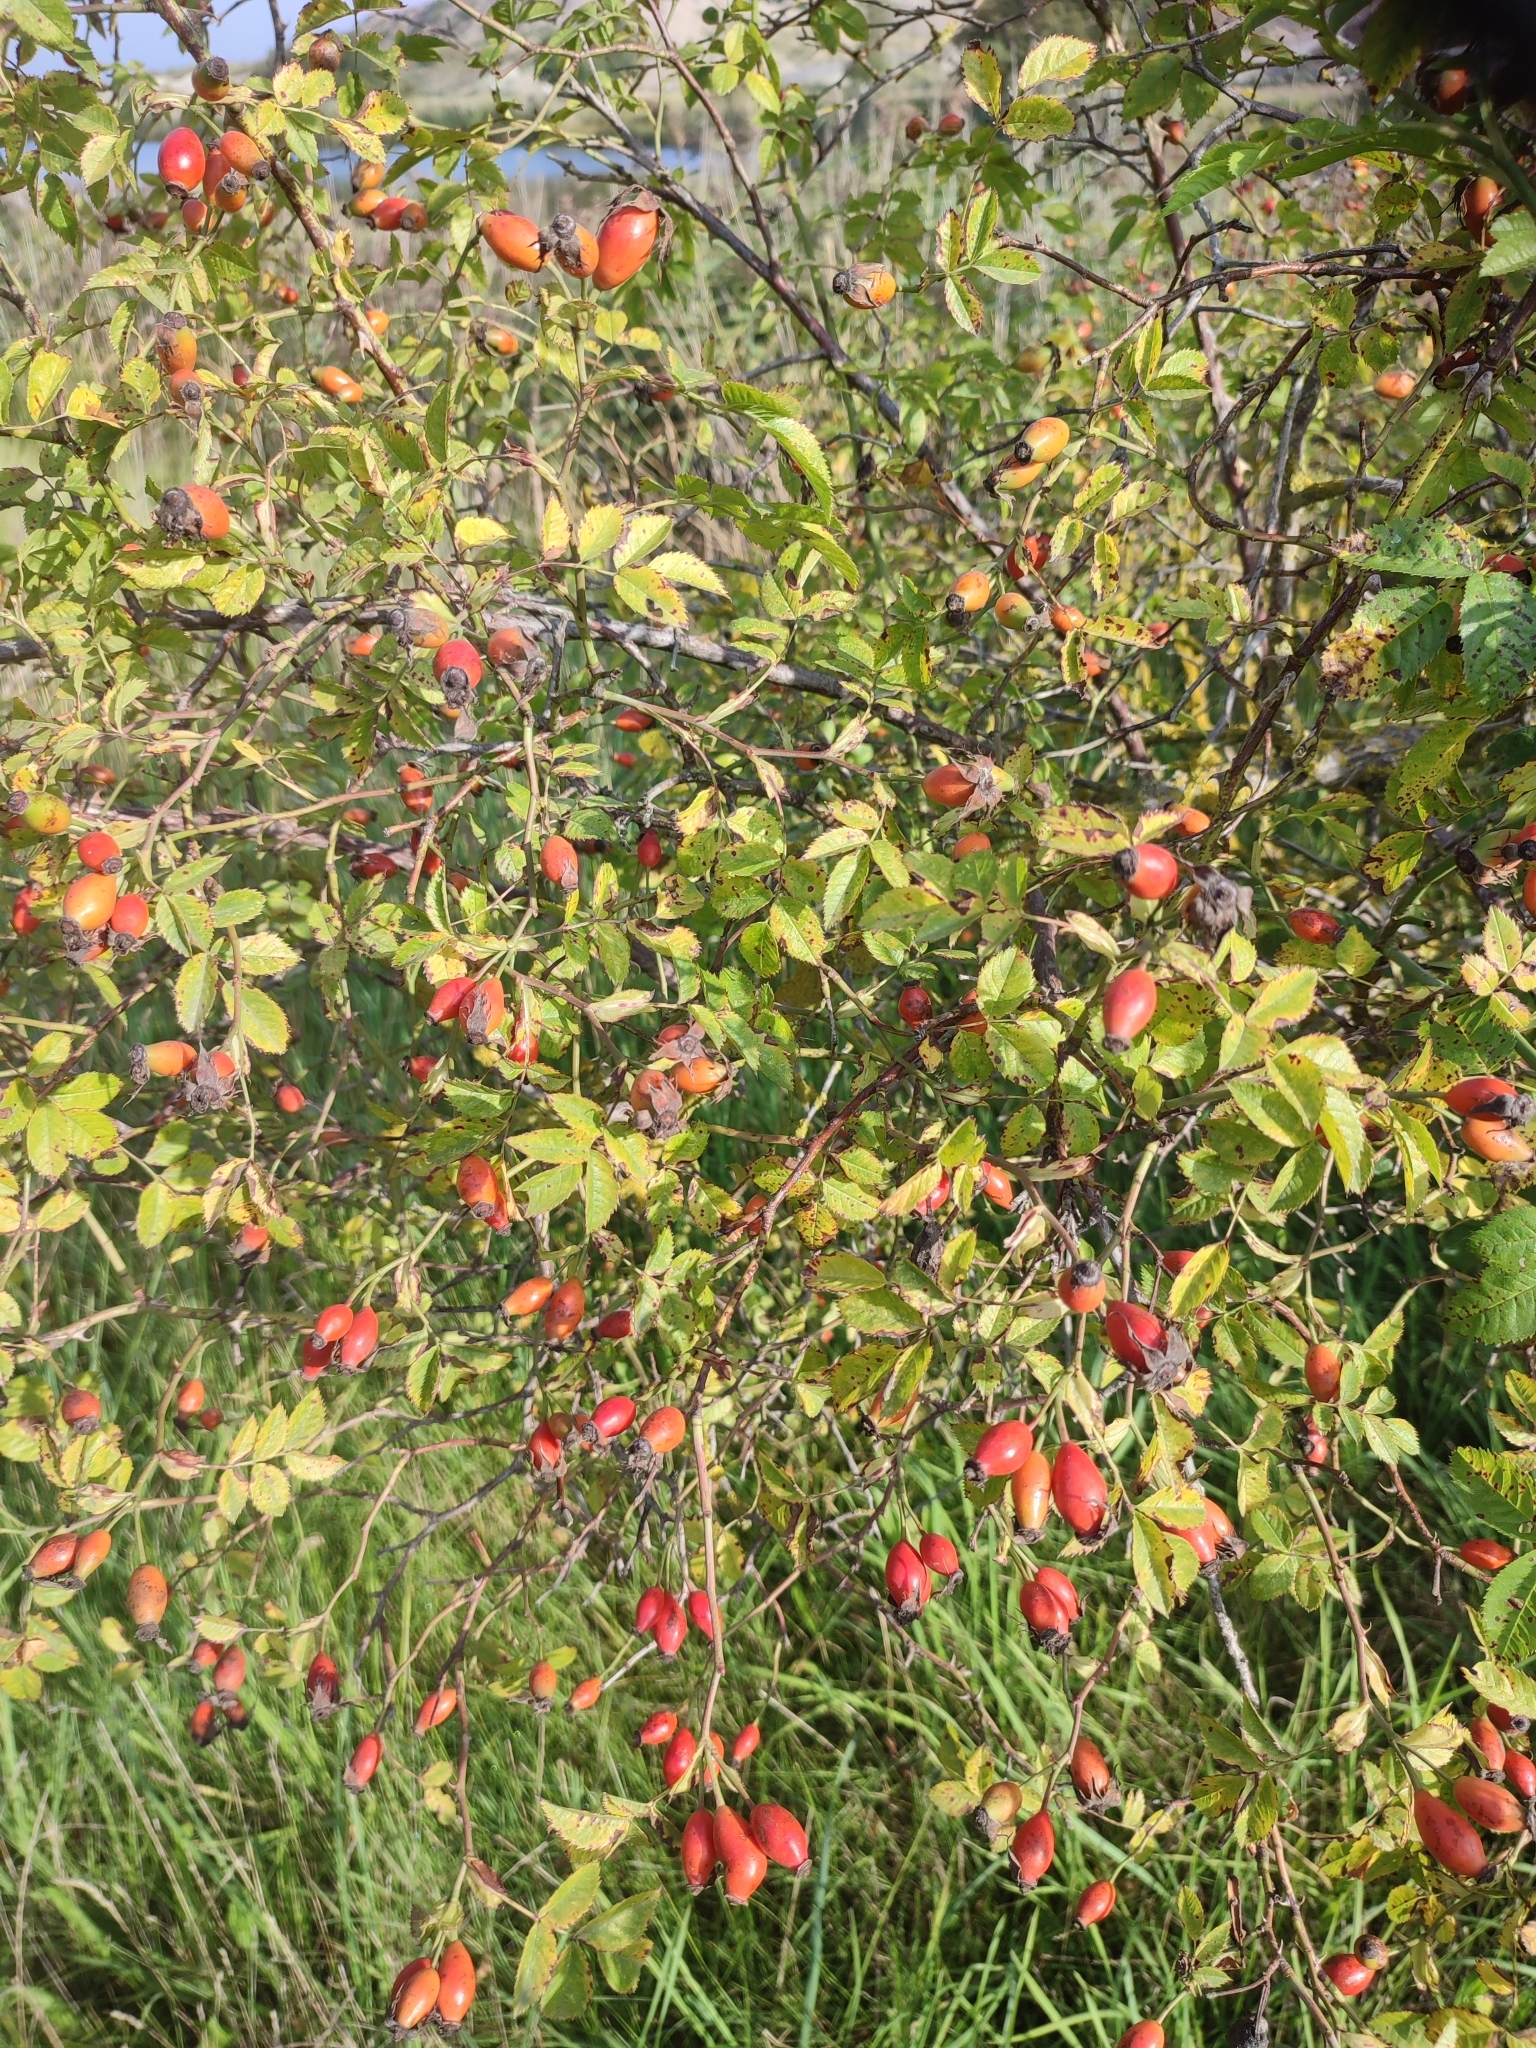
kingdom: Plantae
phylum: Tracheophyta
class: Magnoliopsida
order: Rosales
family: Rosaceae
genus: Rosa
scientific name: Rosa canina
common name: Dog rose
